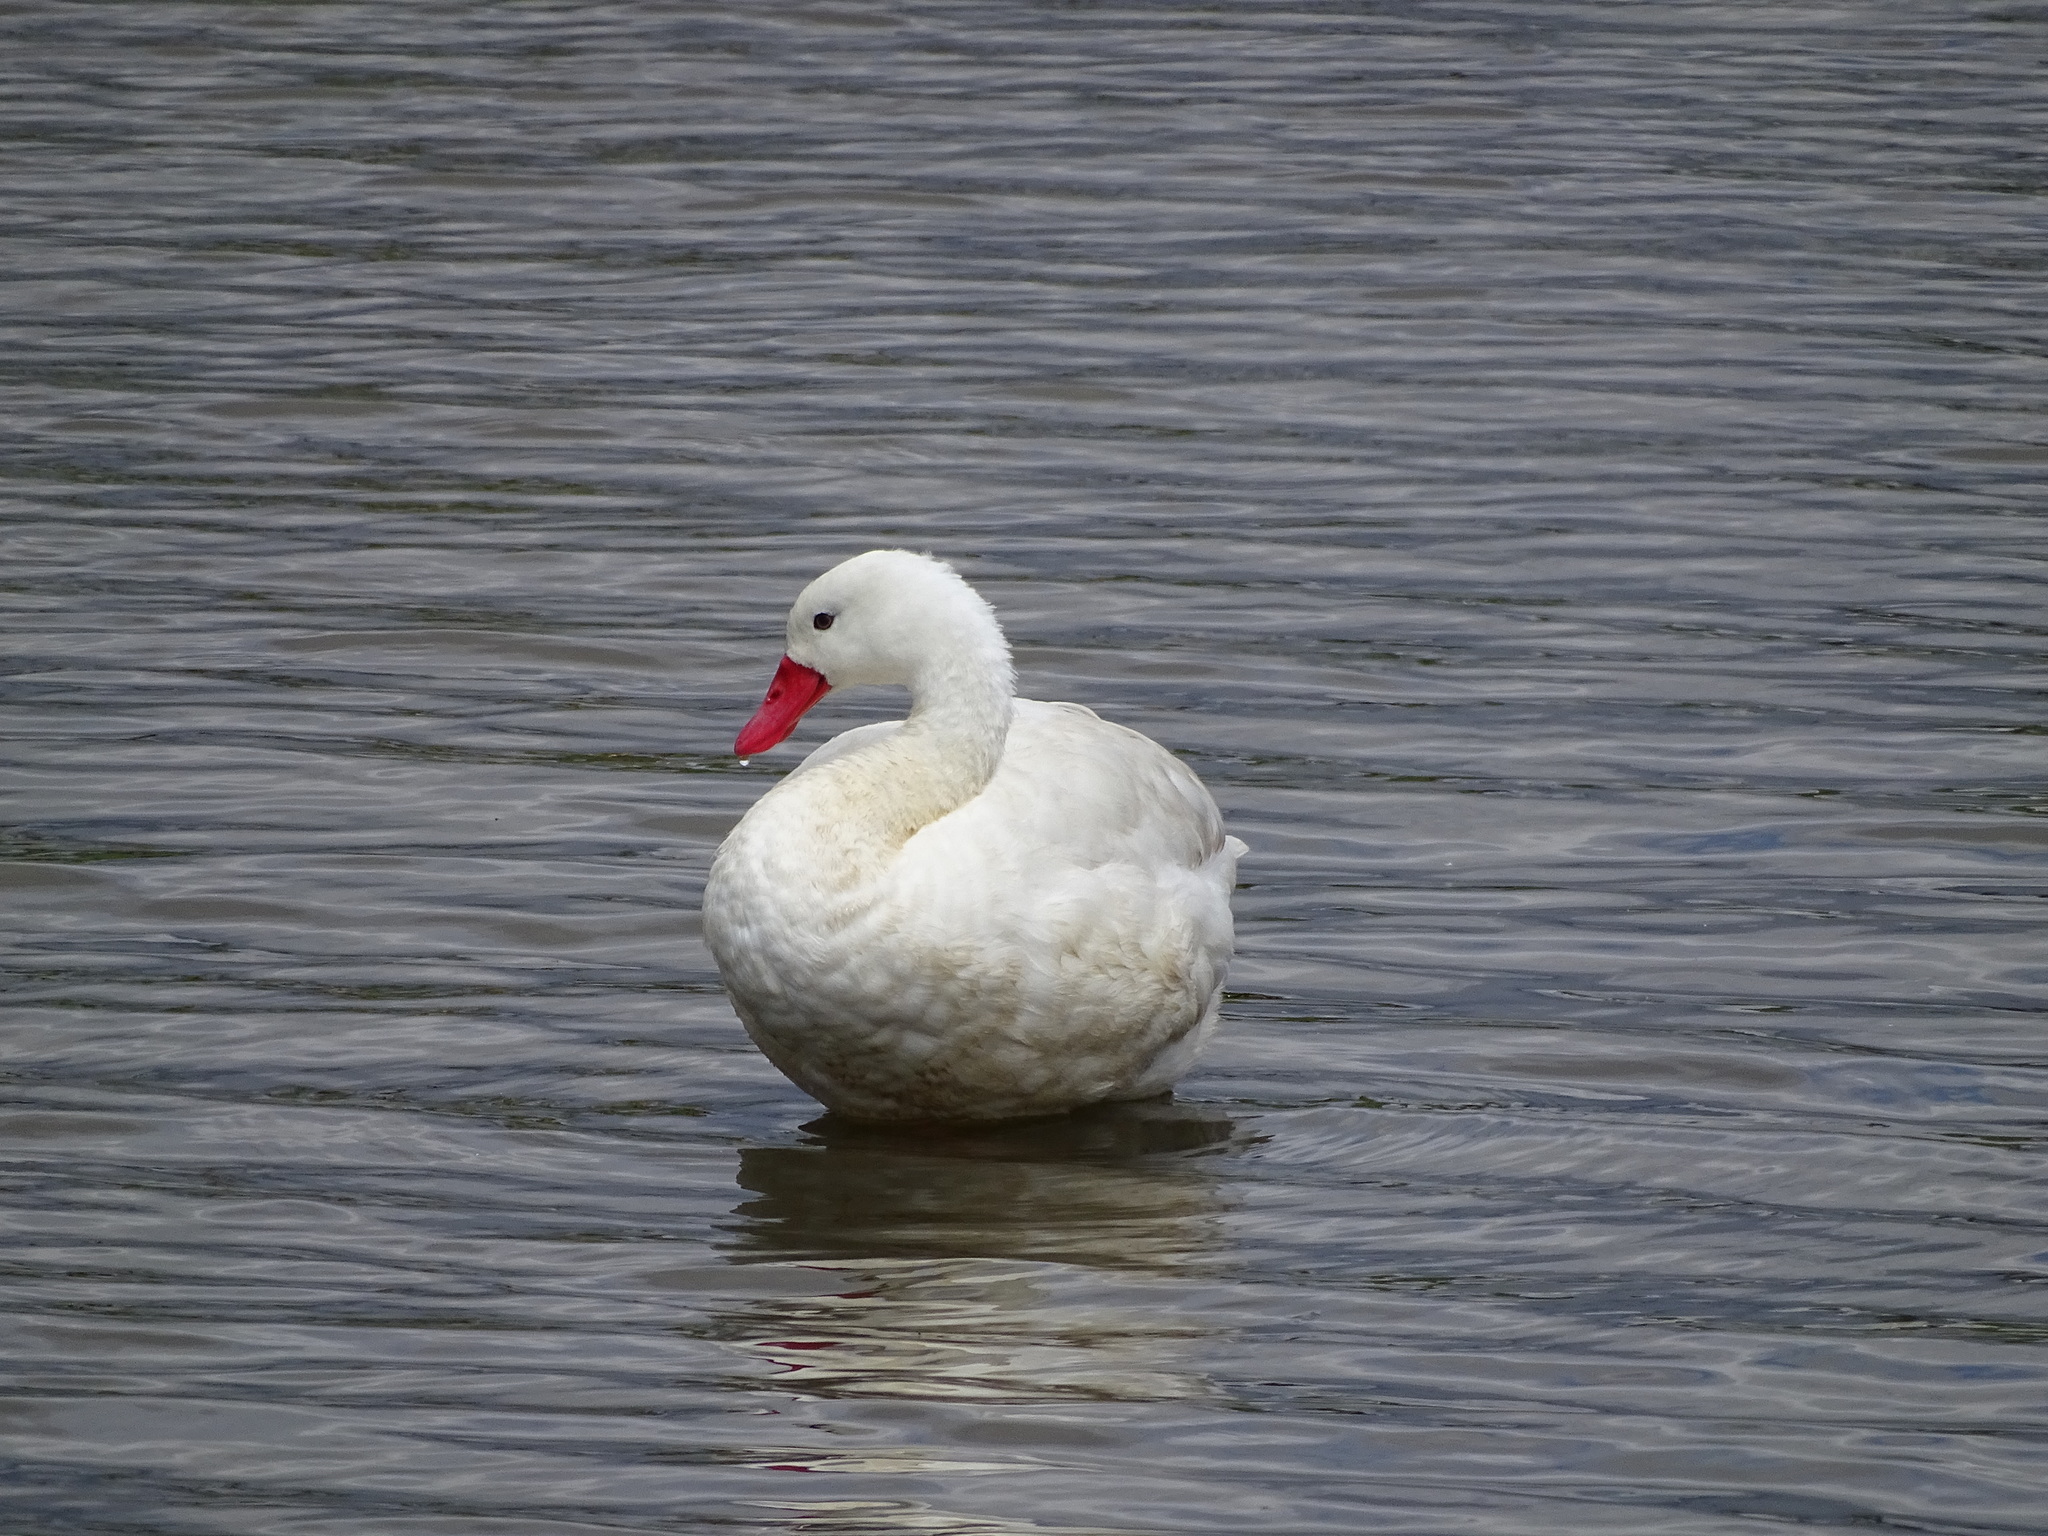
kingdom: Animalia
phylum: Chordata
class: Aves
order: Anseriformes
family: Anatidae
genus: Coscoroba
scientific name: Coscoroba coscoroba
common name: Coscoroba swan
